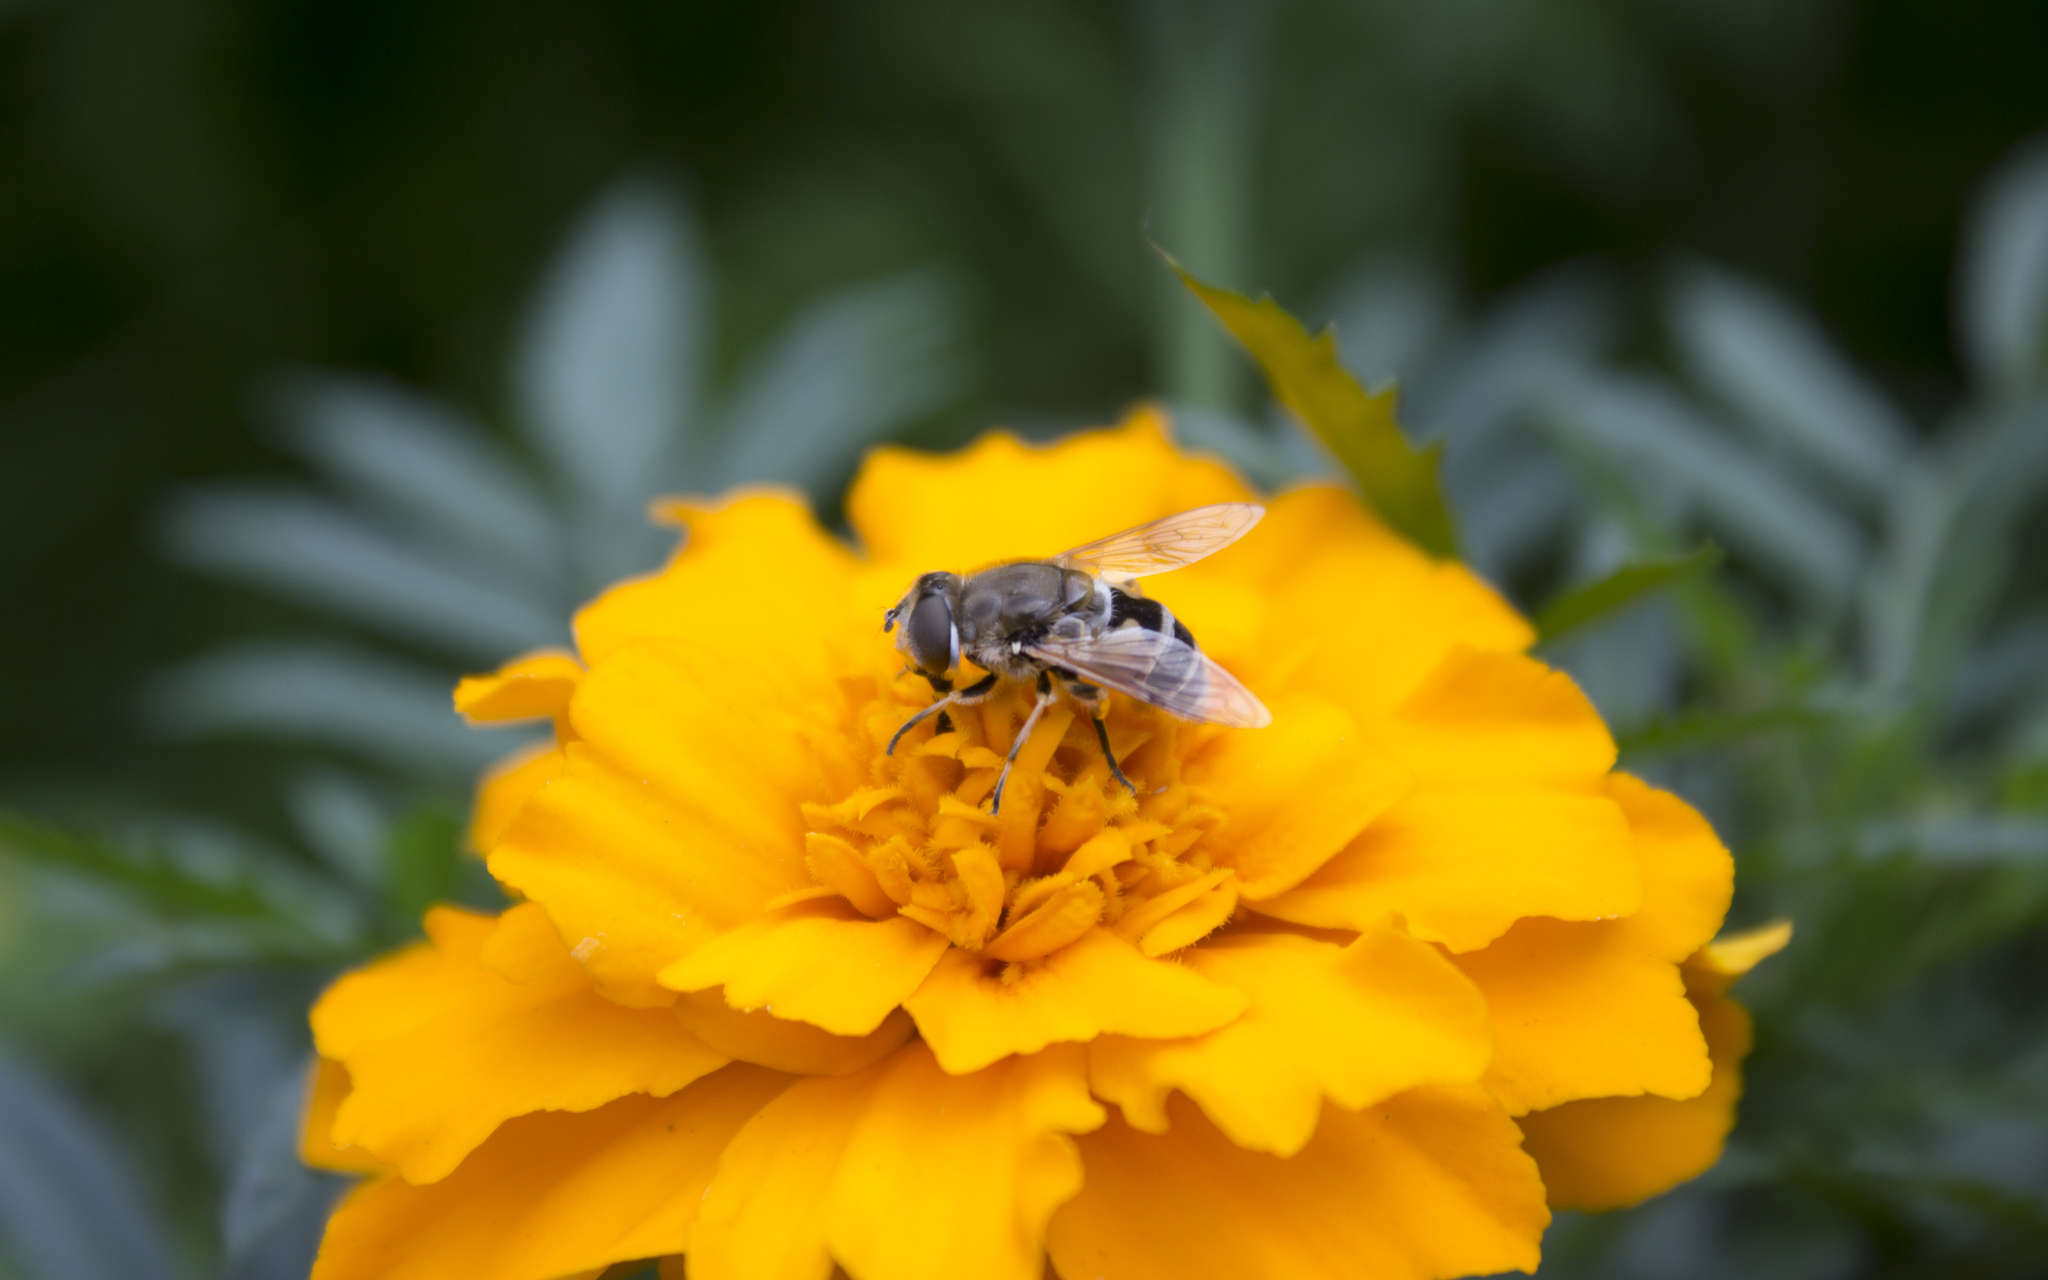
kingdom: Animalia
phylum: Arthropoda
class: Insecta
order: Diptera
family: Syrphidae
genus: Eristalis
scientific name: Eristalis arbustorum
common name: Hover fly
